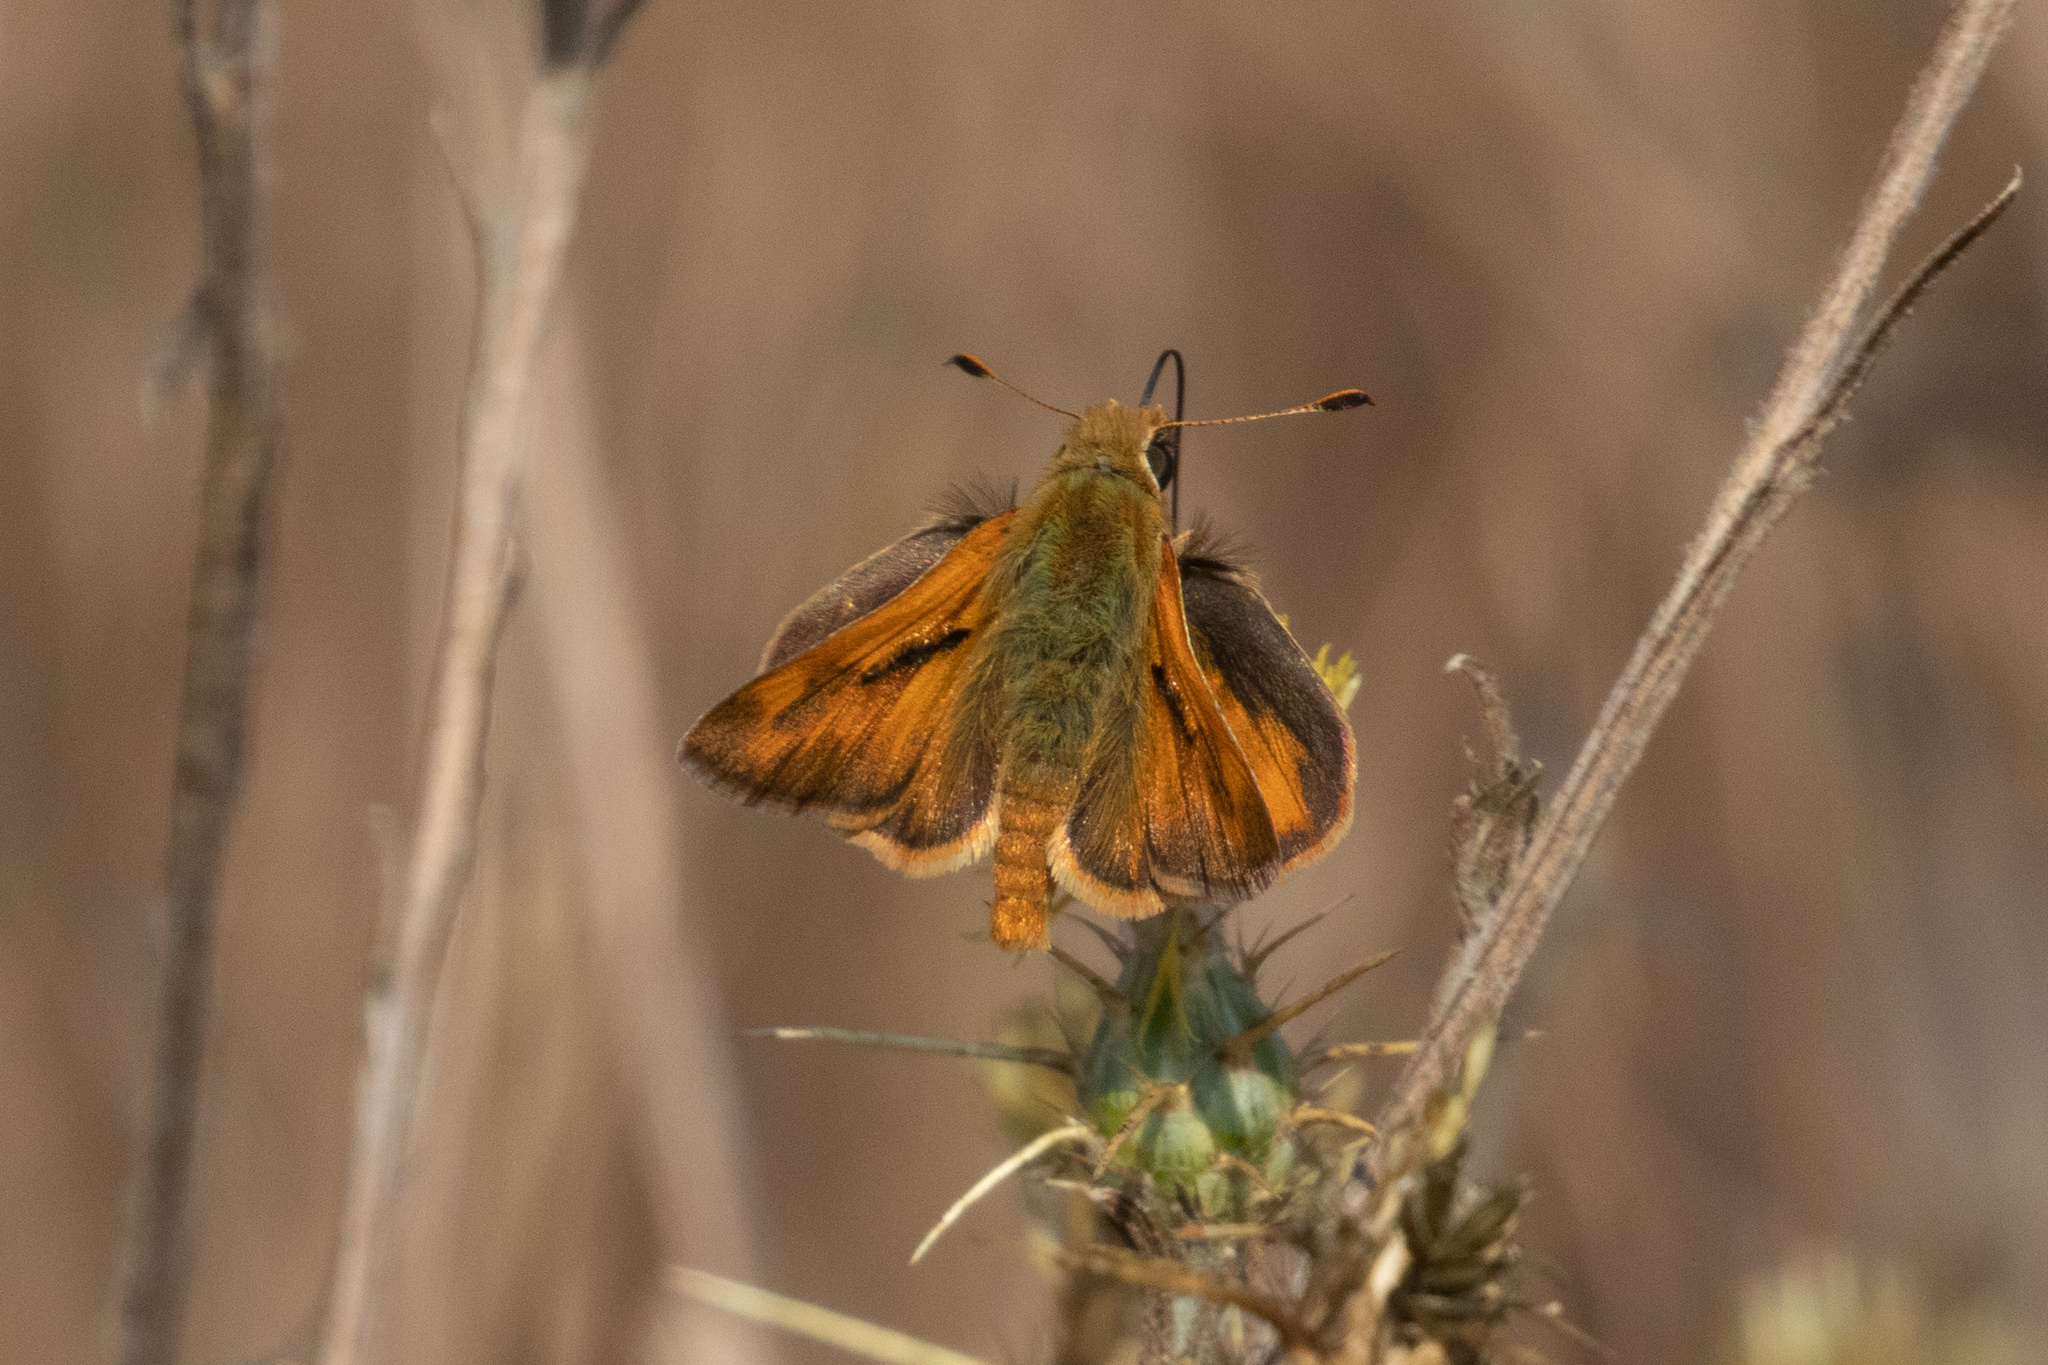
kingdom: Animalia
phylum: Arthropoda
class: Insecta
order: Lepidoptera
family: Hesperiidae
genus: Ochlodes
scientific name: Ochlodes sylvanoides
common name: Woodland skipper
